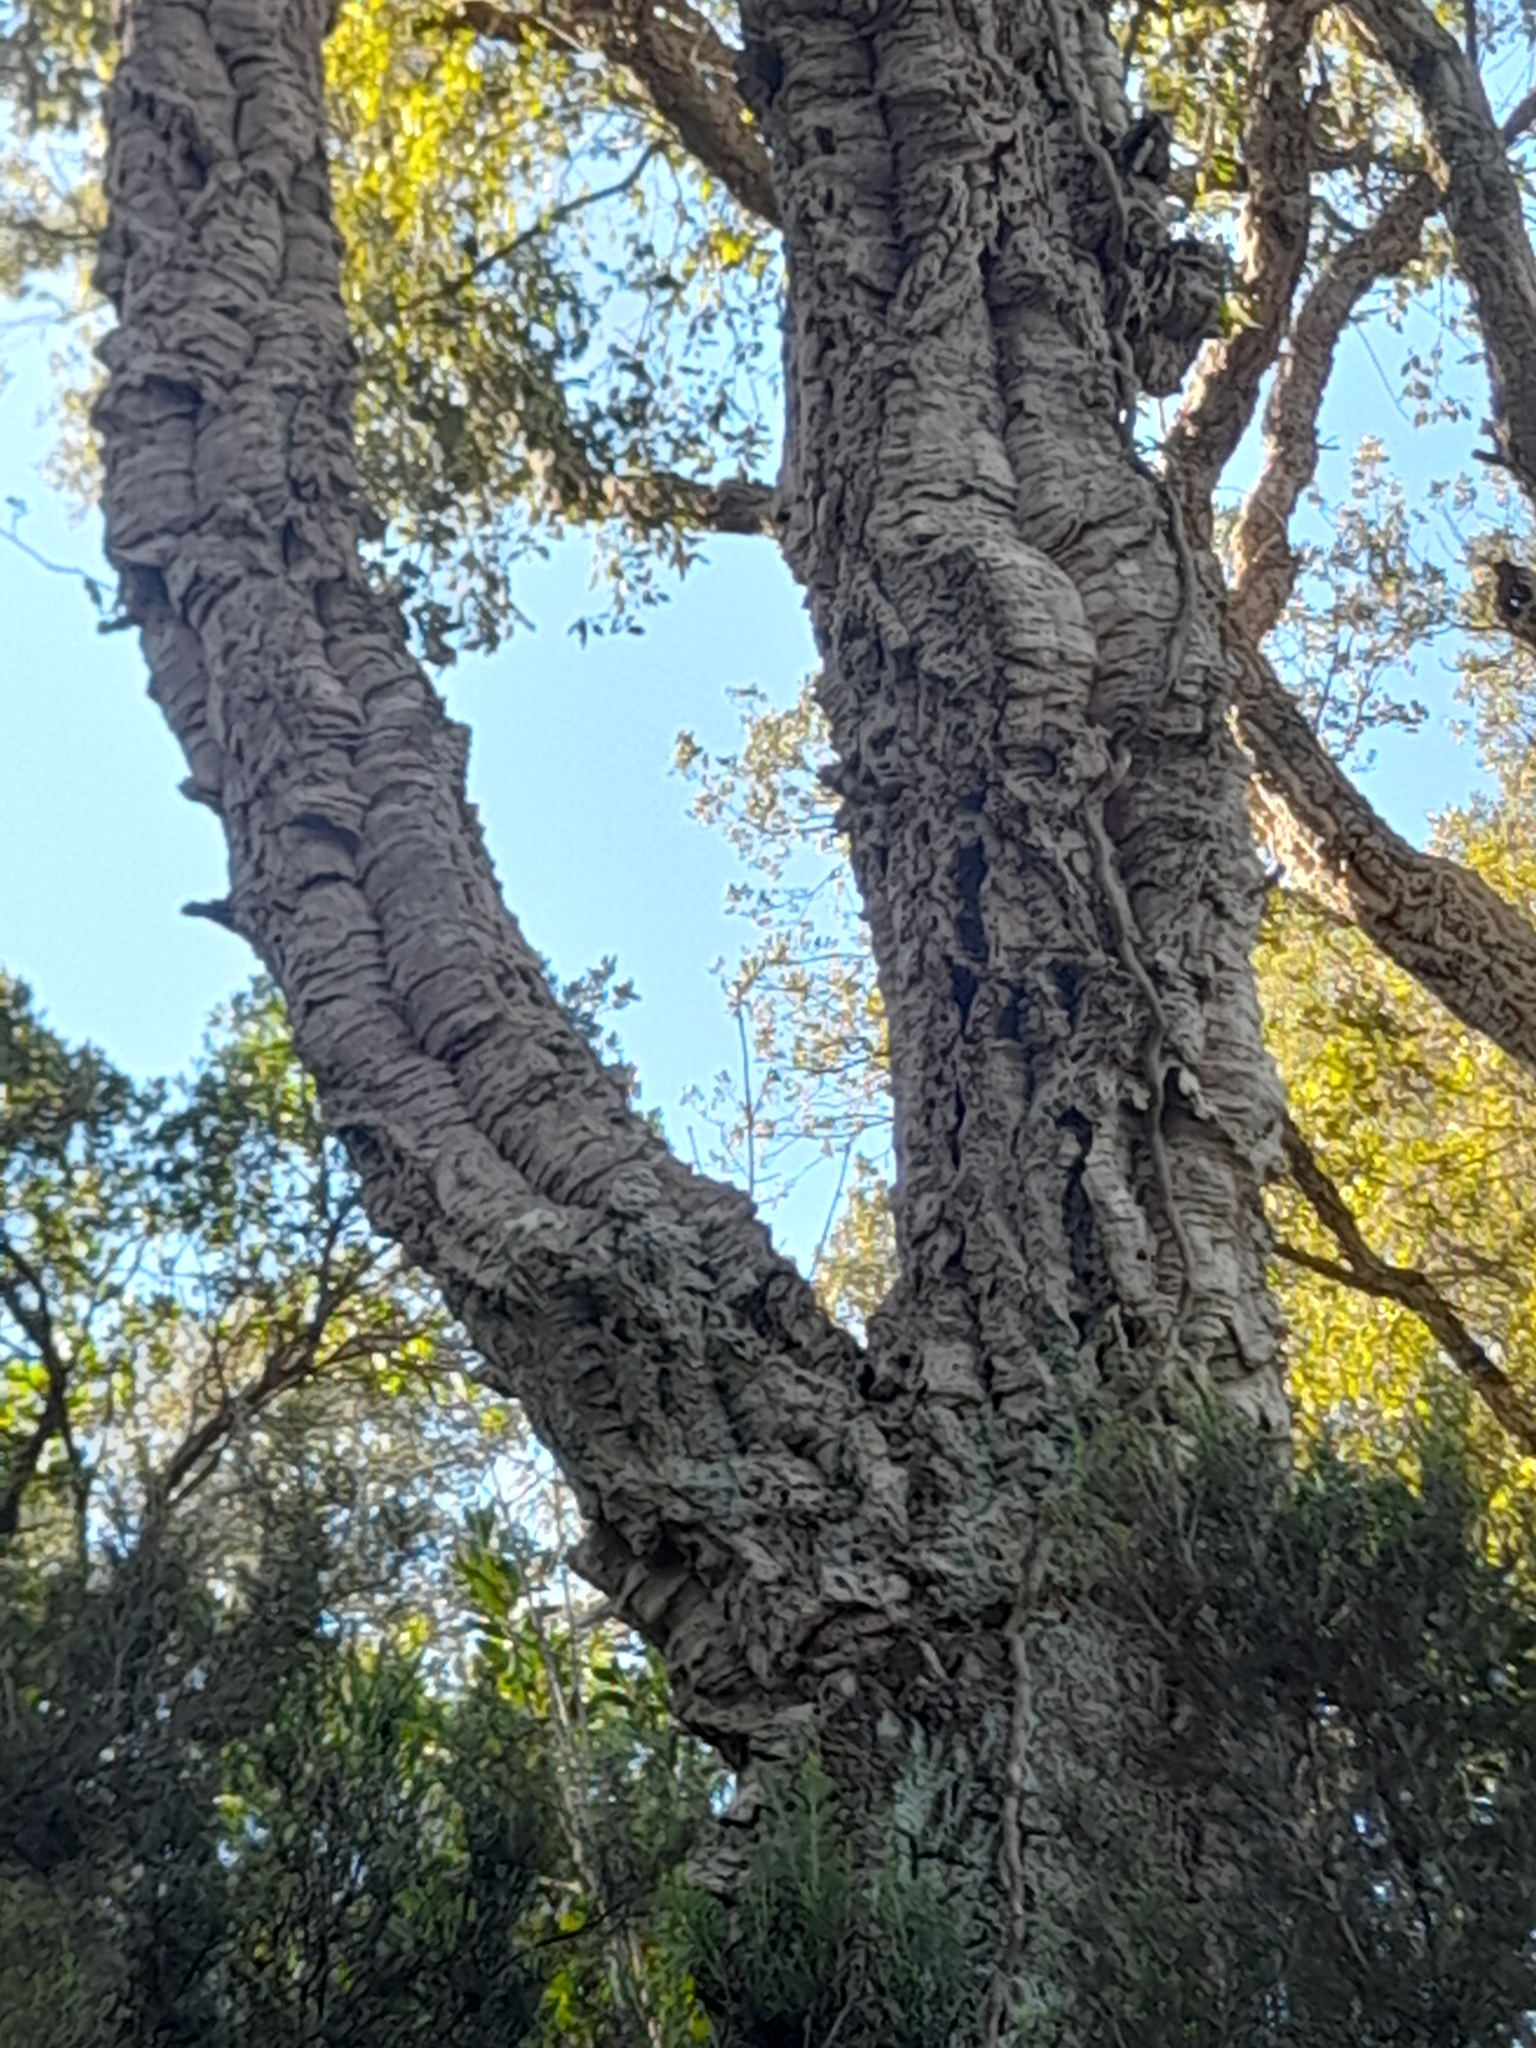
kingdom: Plantae
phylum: Tracheophyta
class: Magnoliopsida
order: Fagales
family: Fagaceae
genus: Quercus
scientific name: Quercus suber
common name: Cork oak
